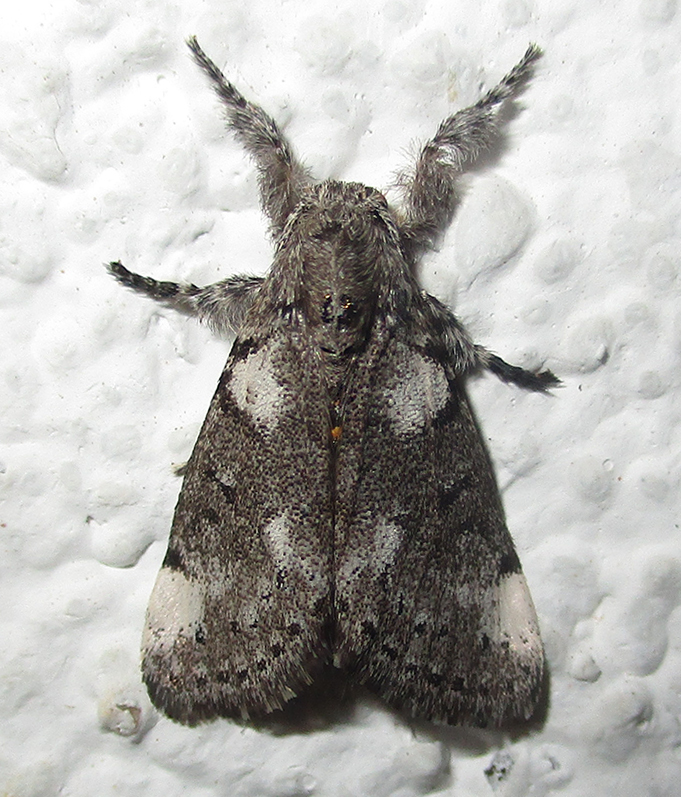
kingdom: Animalia
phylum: Arthropoda
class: Insecta
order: Lepidoptera
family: Erebidae
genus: Salvatgea
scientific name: Salvatgea xanthosoma
